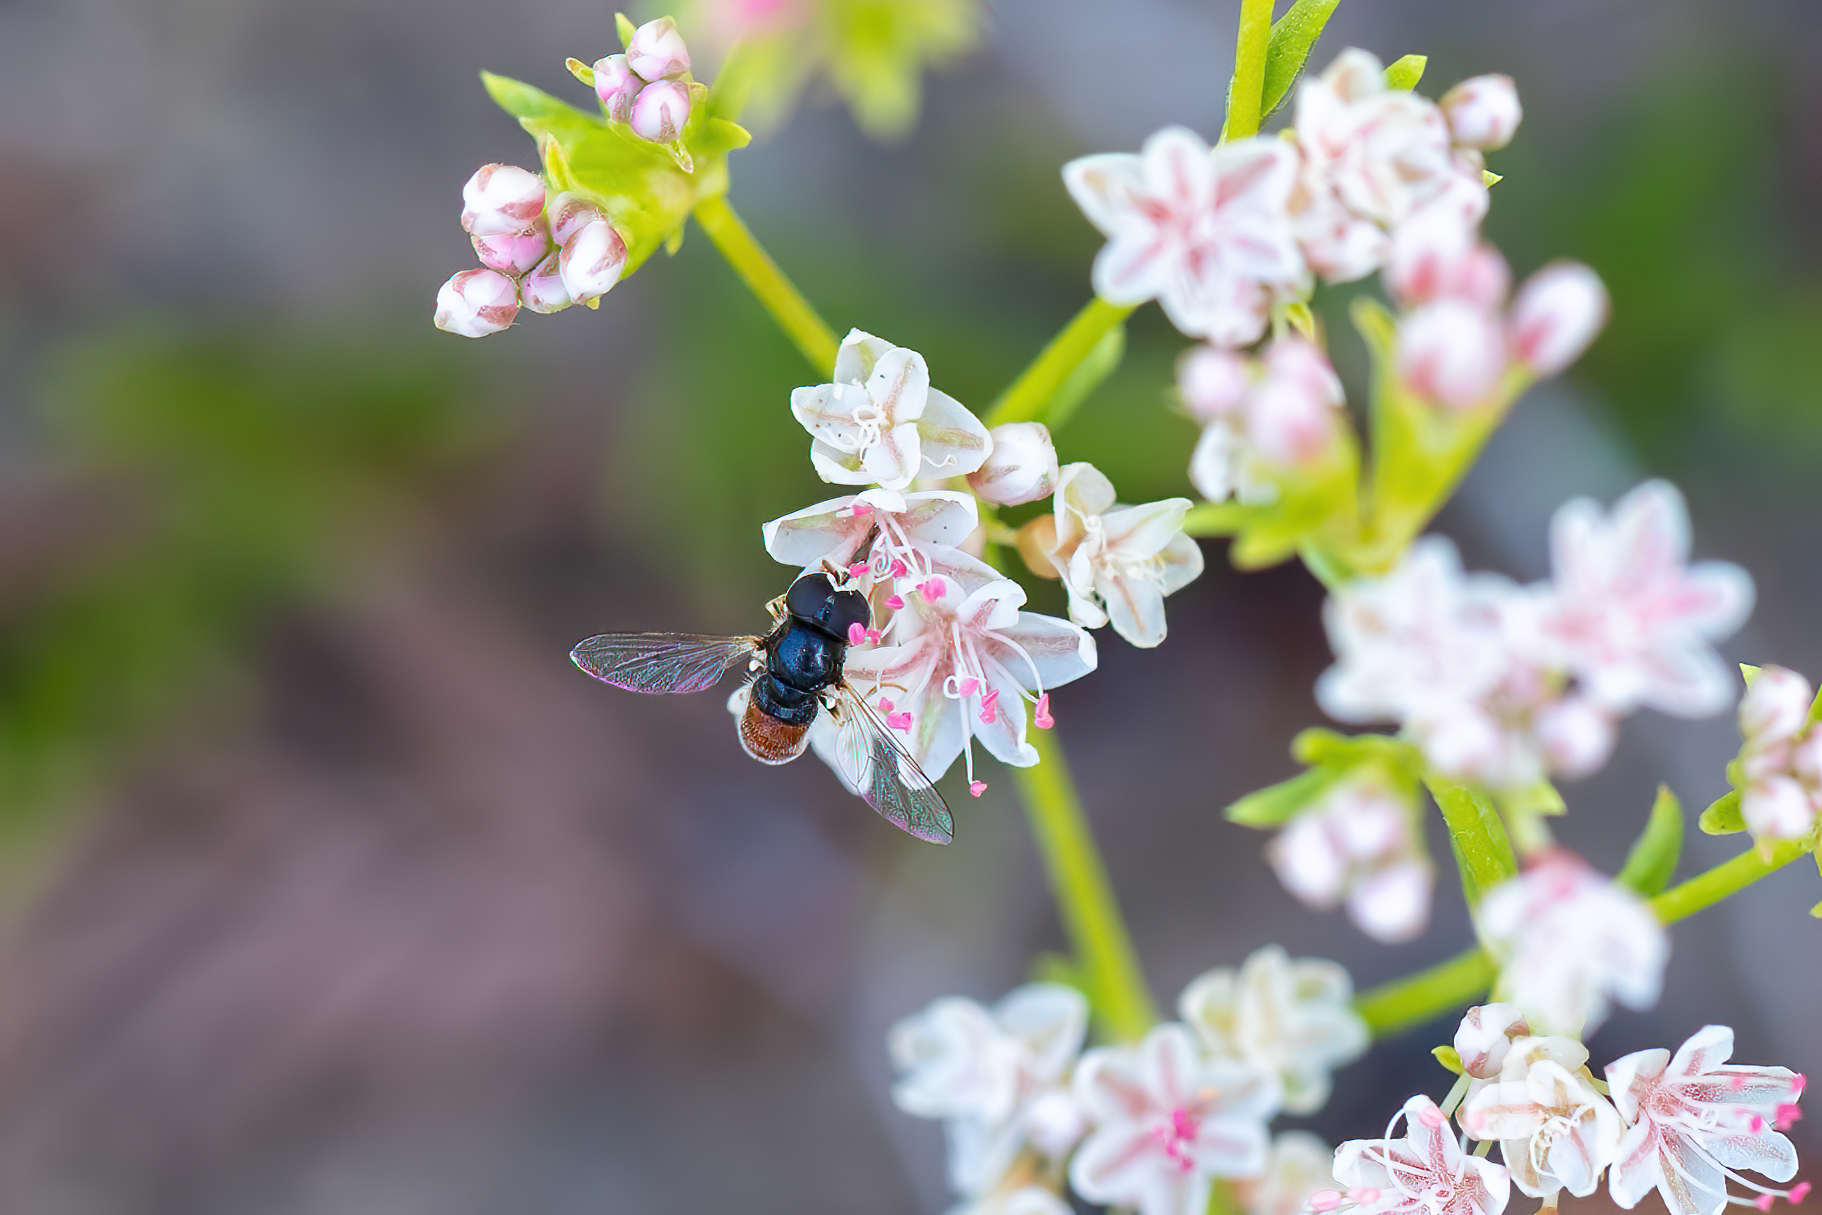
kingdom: Animalia
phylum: Arthropoda
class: Insecta
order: Diptera
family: Syrphidae
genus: Paragus
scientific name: Paragus haemorrhous
